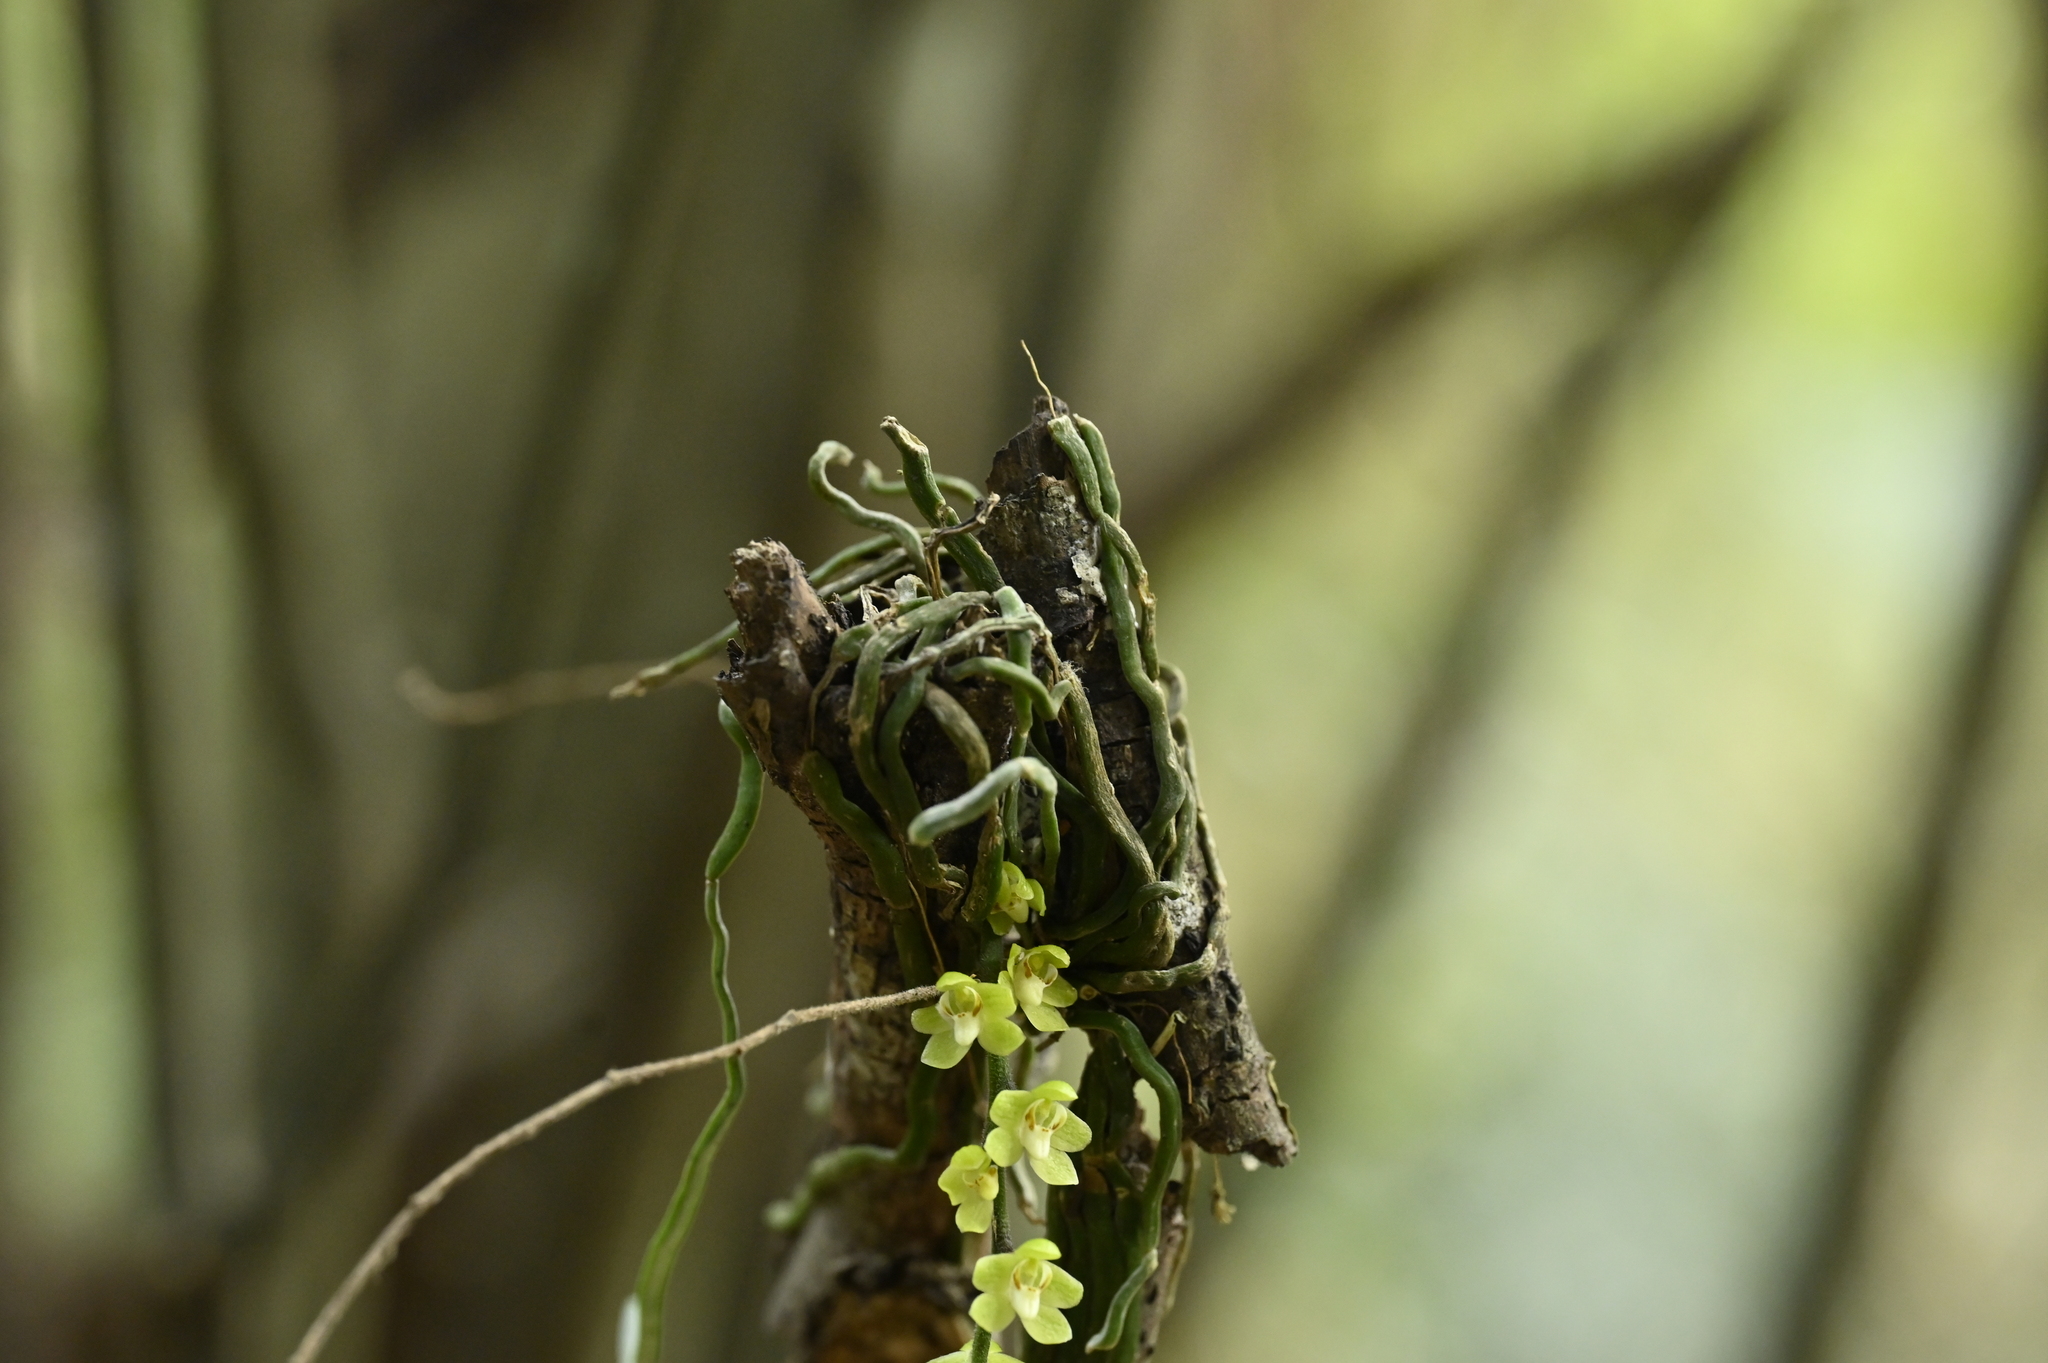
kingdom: Plantae
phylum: Tracheophyta
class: Liliopsida
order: Asparagales
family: Orchidaceae
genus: Chiloschista
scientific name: Chiloschista segawae
